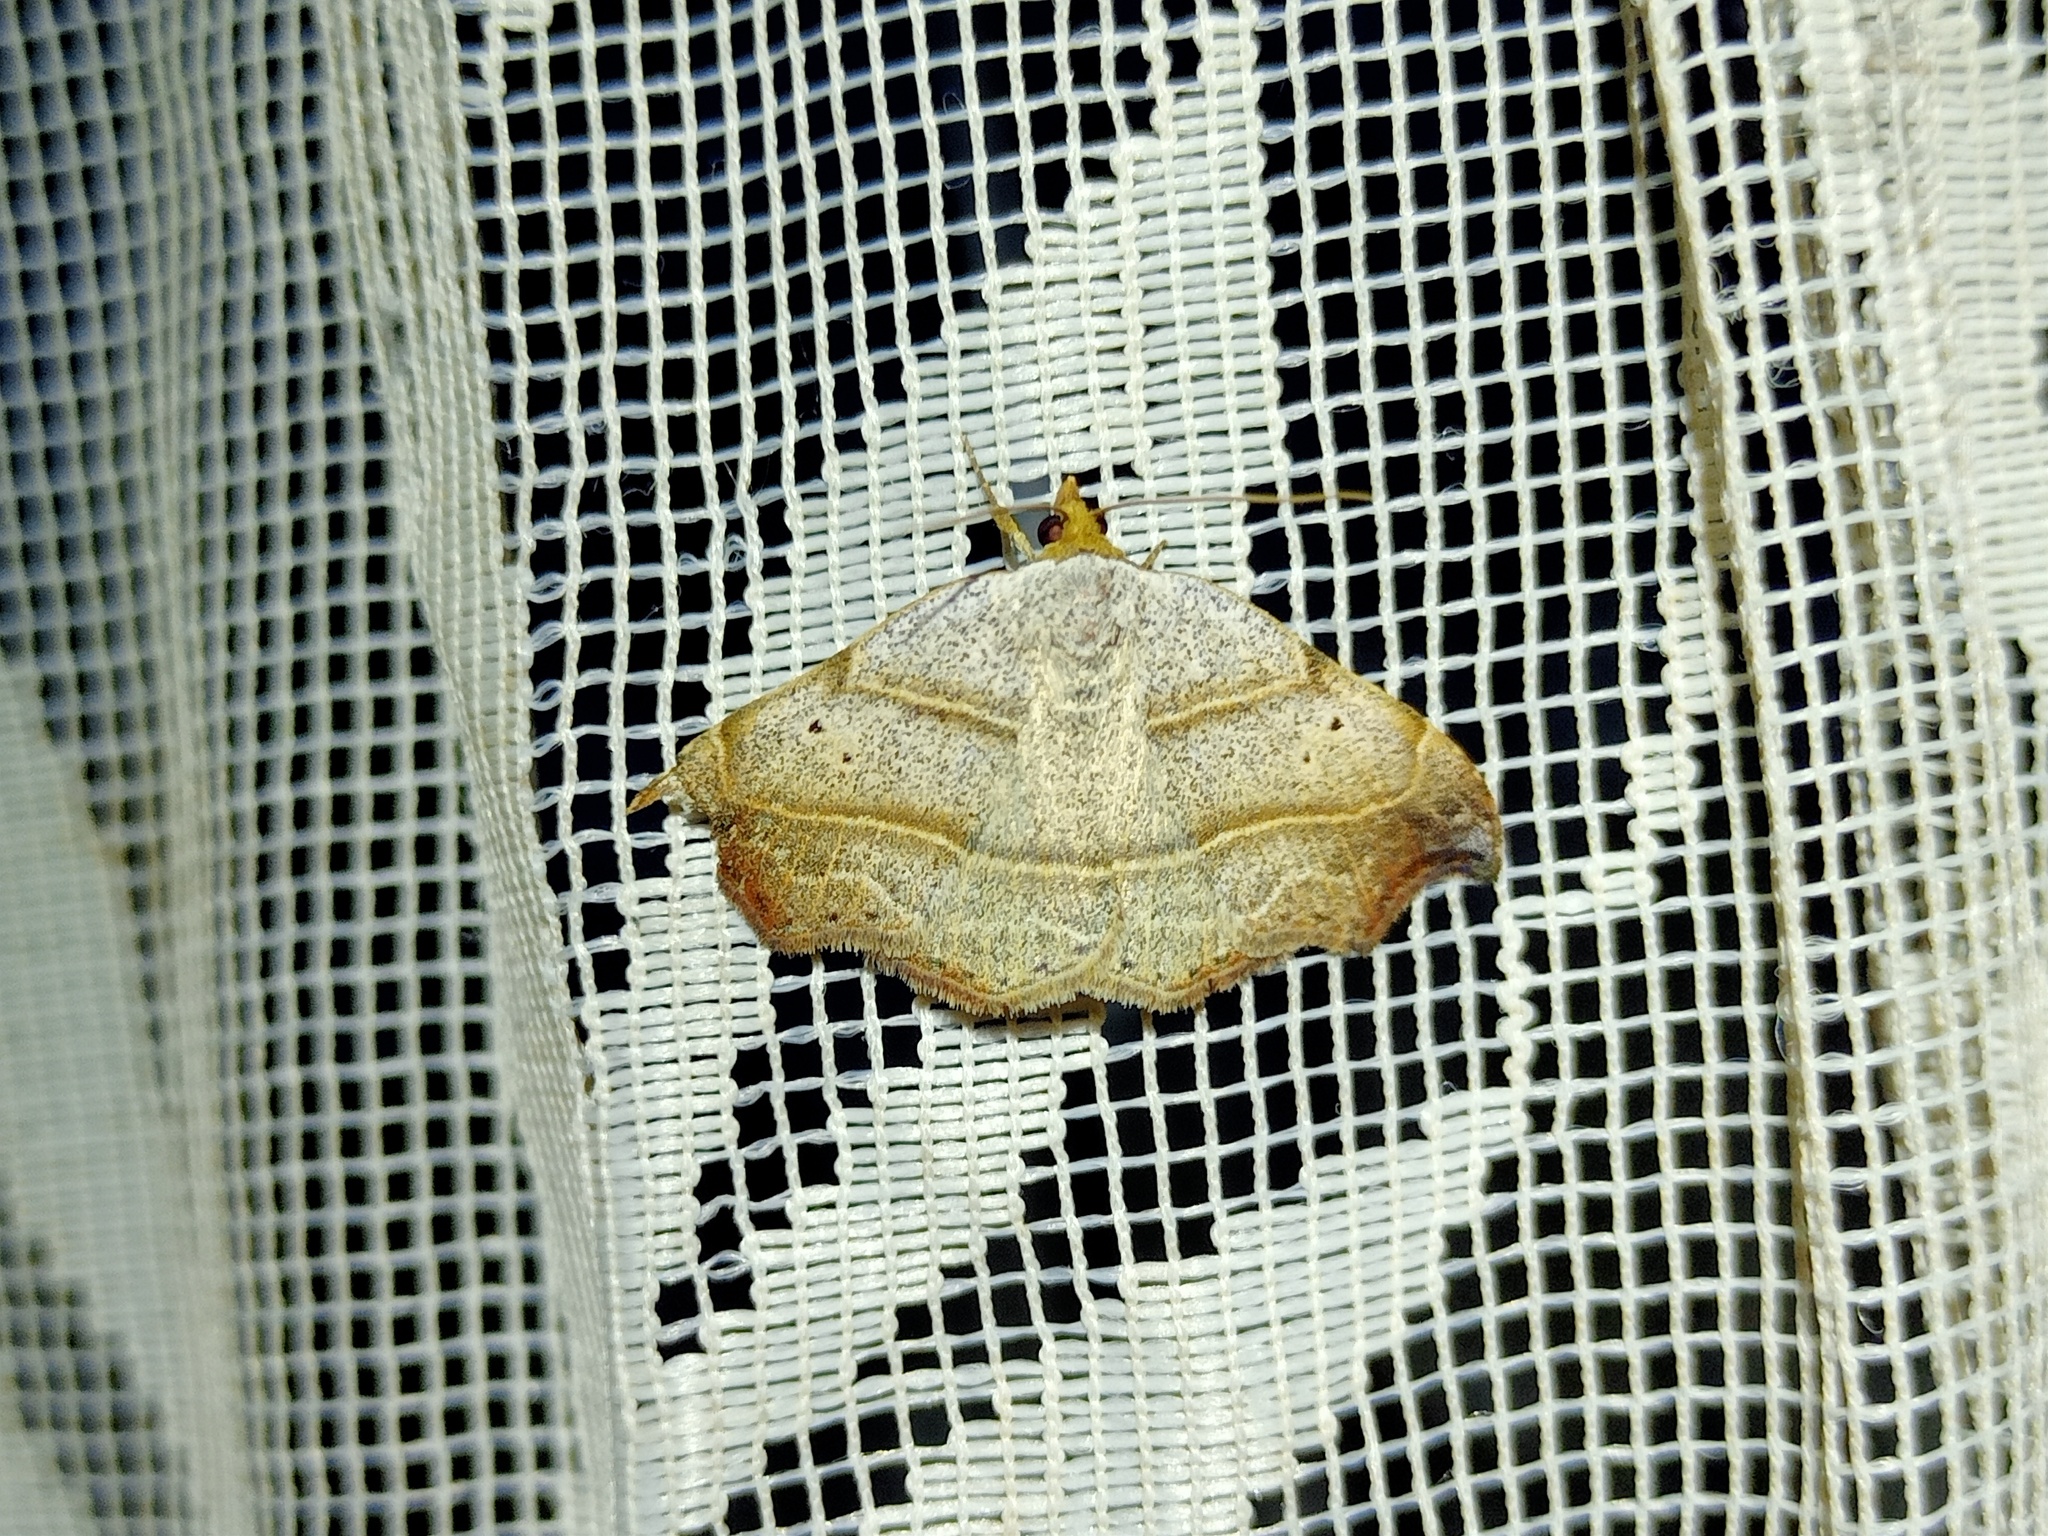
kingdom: Animalia
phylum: Arthropoda
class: Insecta
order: Lepidoptera
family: Erebidae
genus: Laspeyria
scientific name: Laspeyria flexula
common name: Beautiful hook-tip
